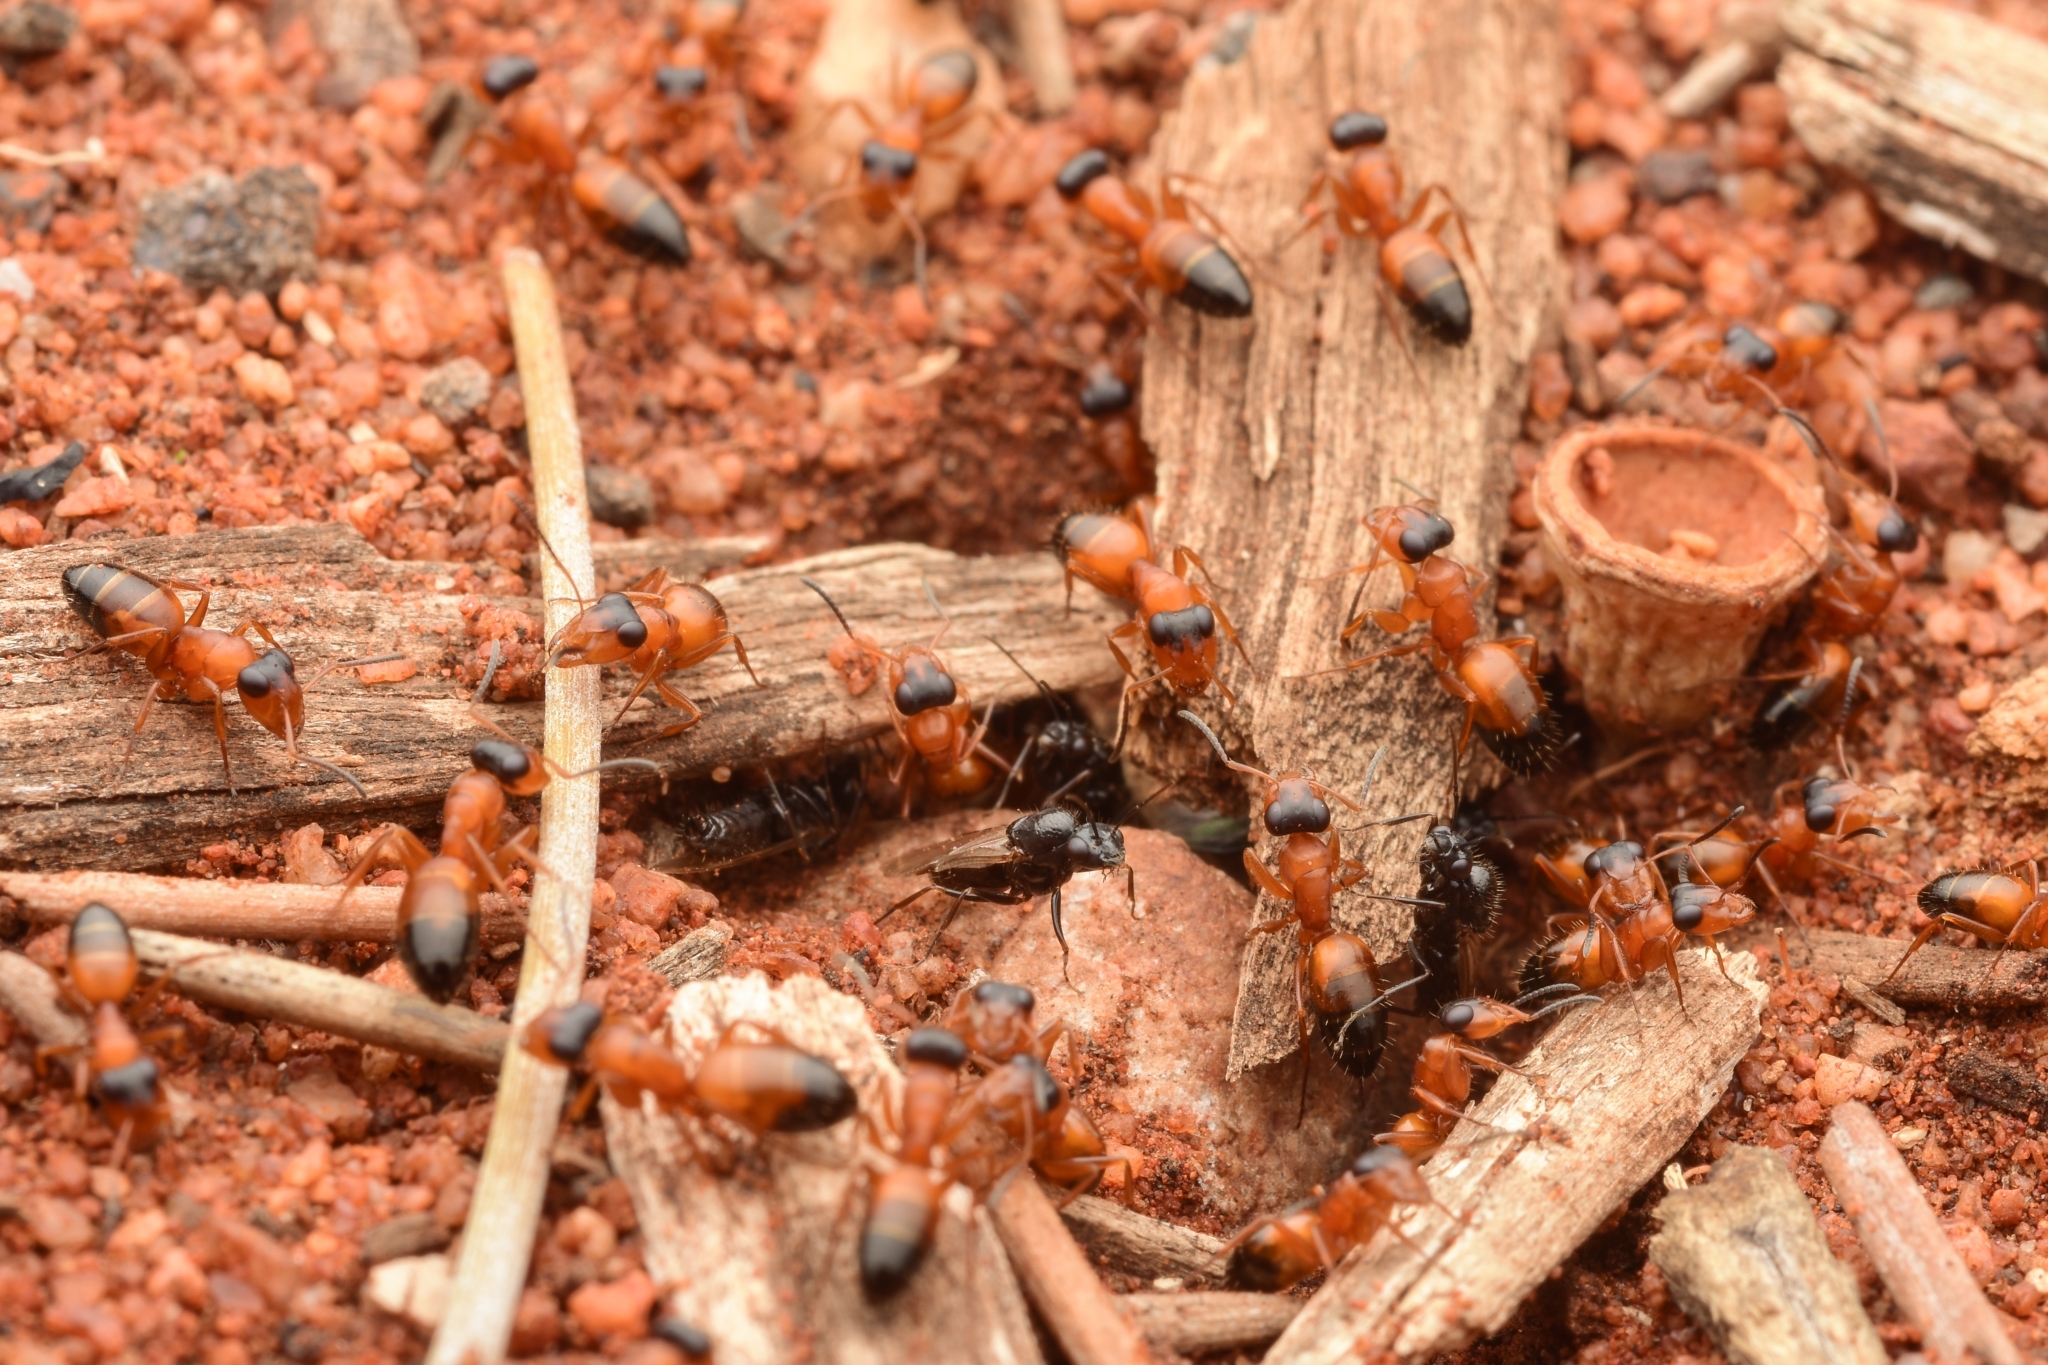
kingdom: Animalia
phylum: Arthropoda
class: Insecta
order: Hymenoptera
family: Formicidae
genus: Opisthopsis
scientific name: Opisthopsis diadematus
